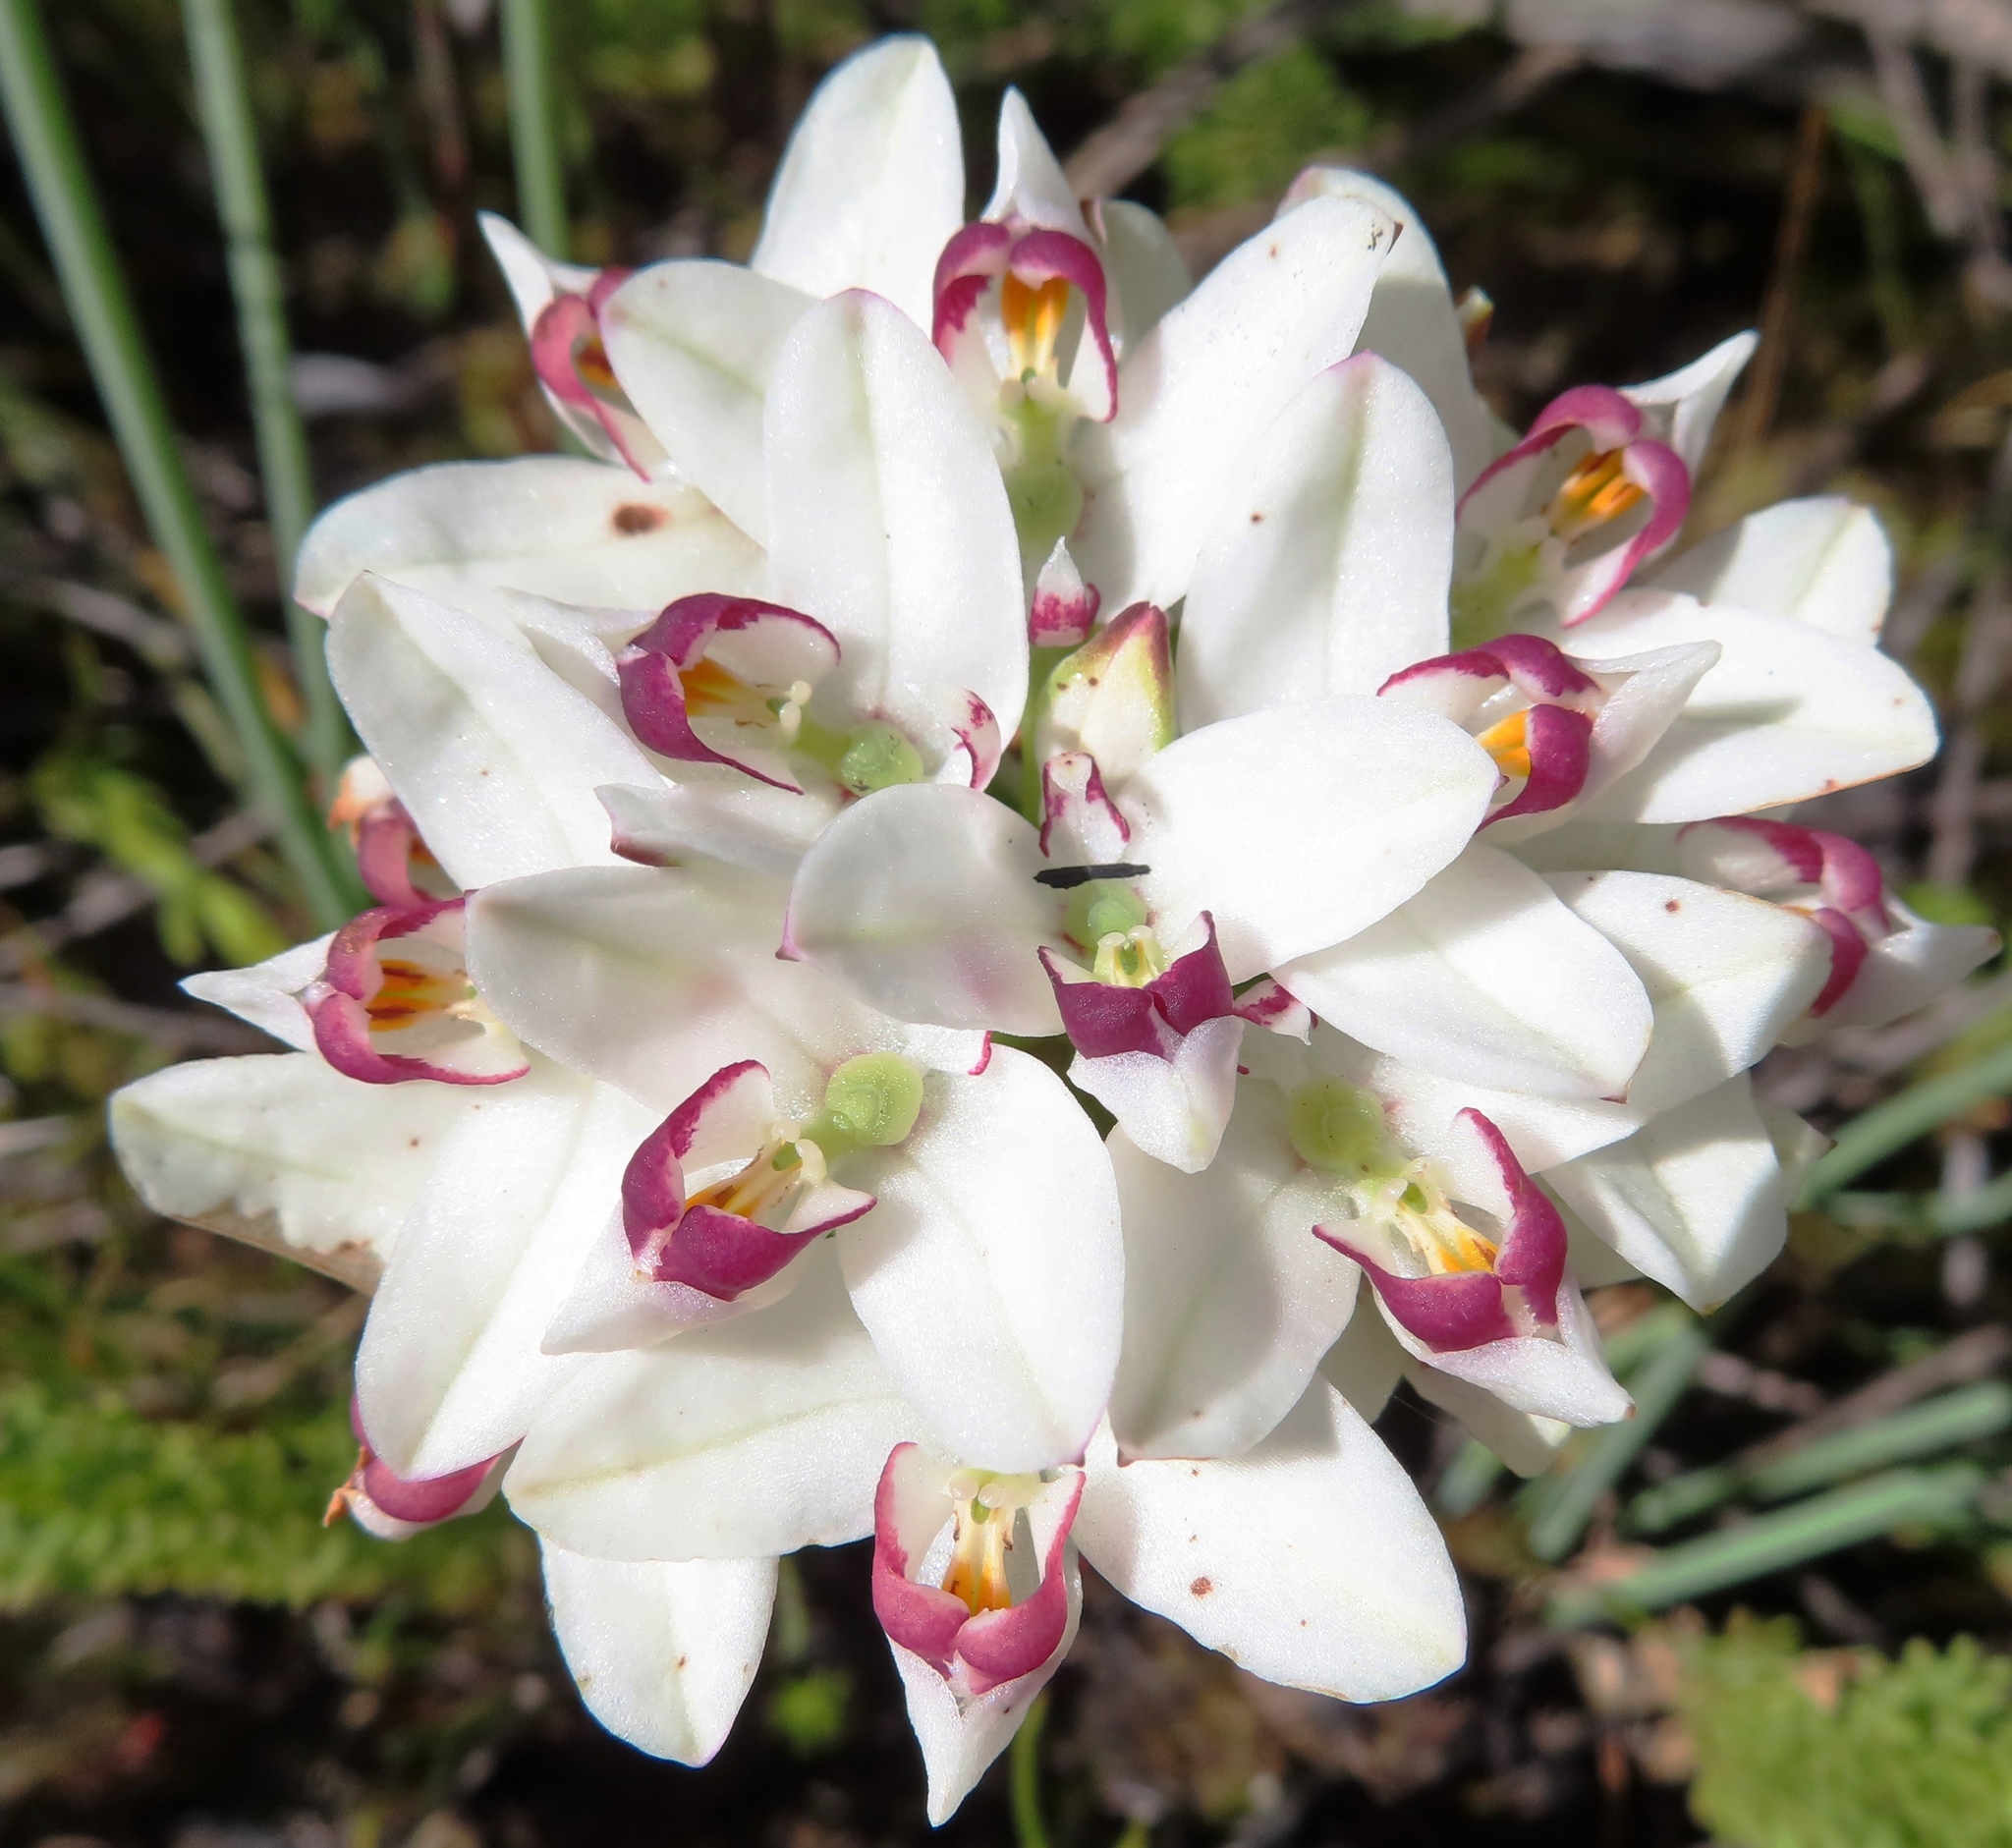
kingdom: Plantae
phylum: Tracheophyta
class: Liliopsida
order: Asparagales
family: Orchidaceae
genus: Disa
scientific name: Disa bivalvata
